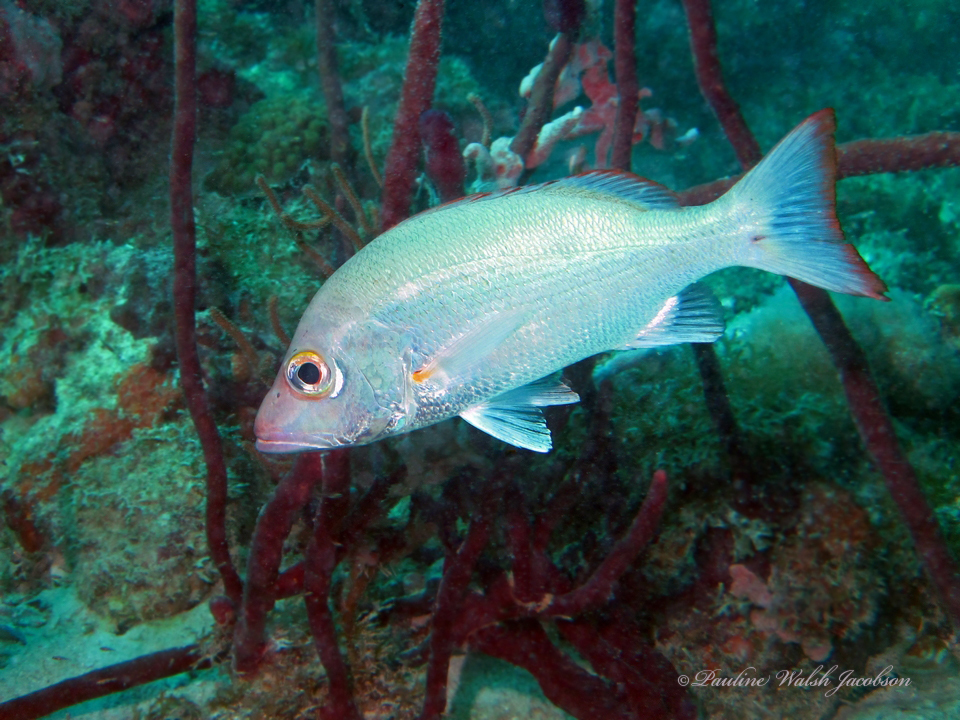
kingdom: Animalia
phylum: Chordata
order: Perciformes
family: Lutjanidae
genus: Lutjanus
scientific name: Lutjanus mahogoni
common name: Spot snapper
